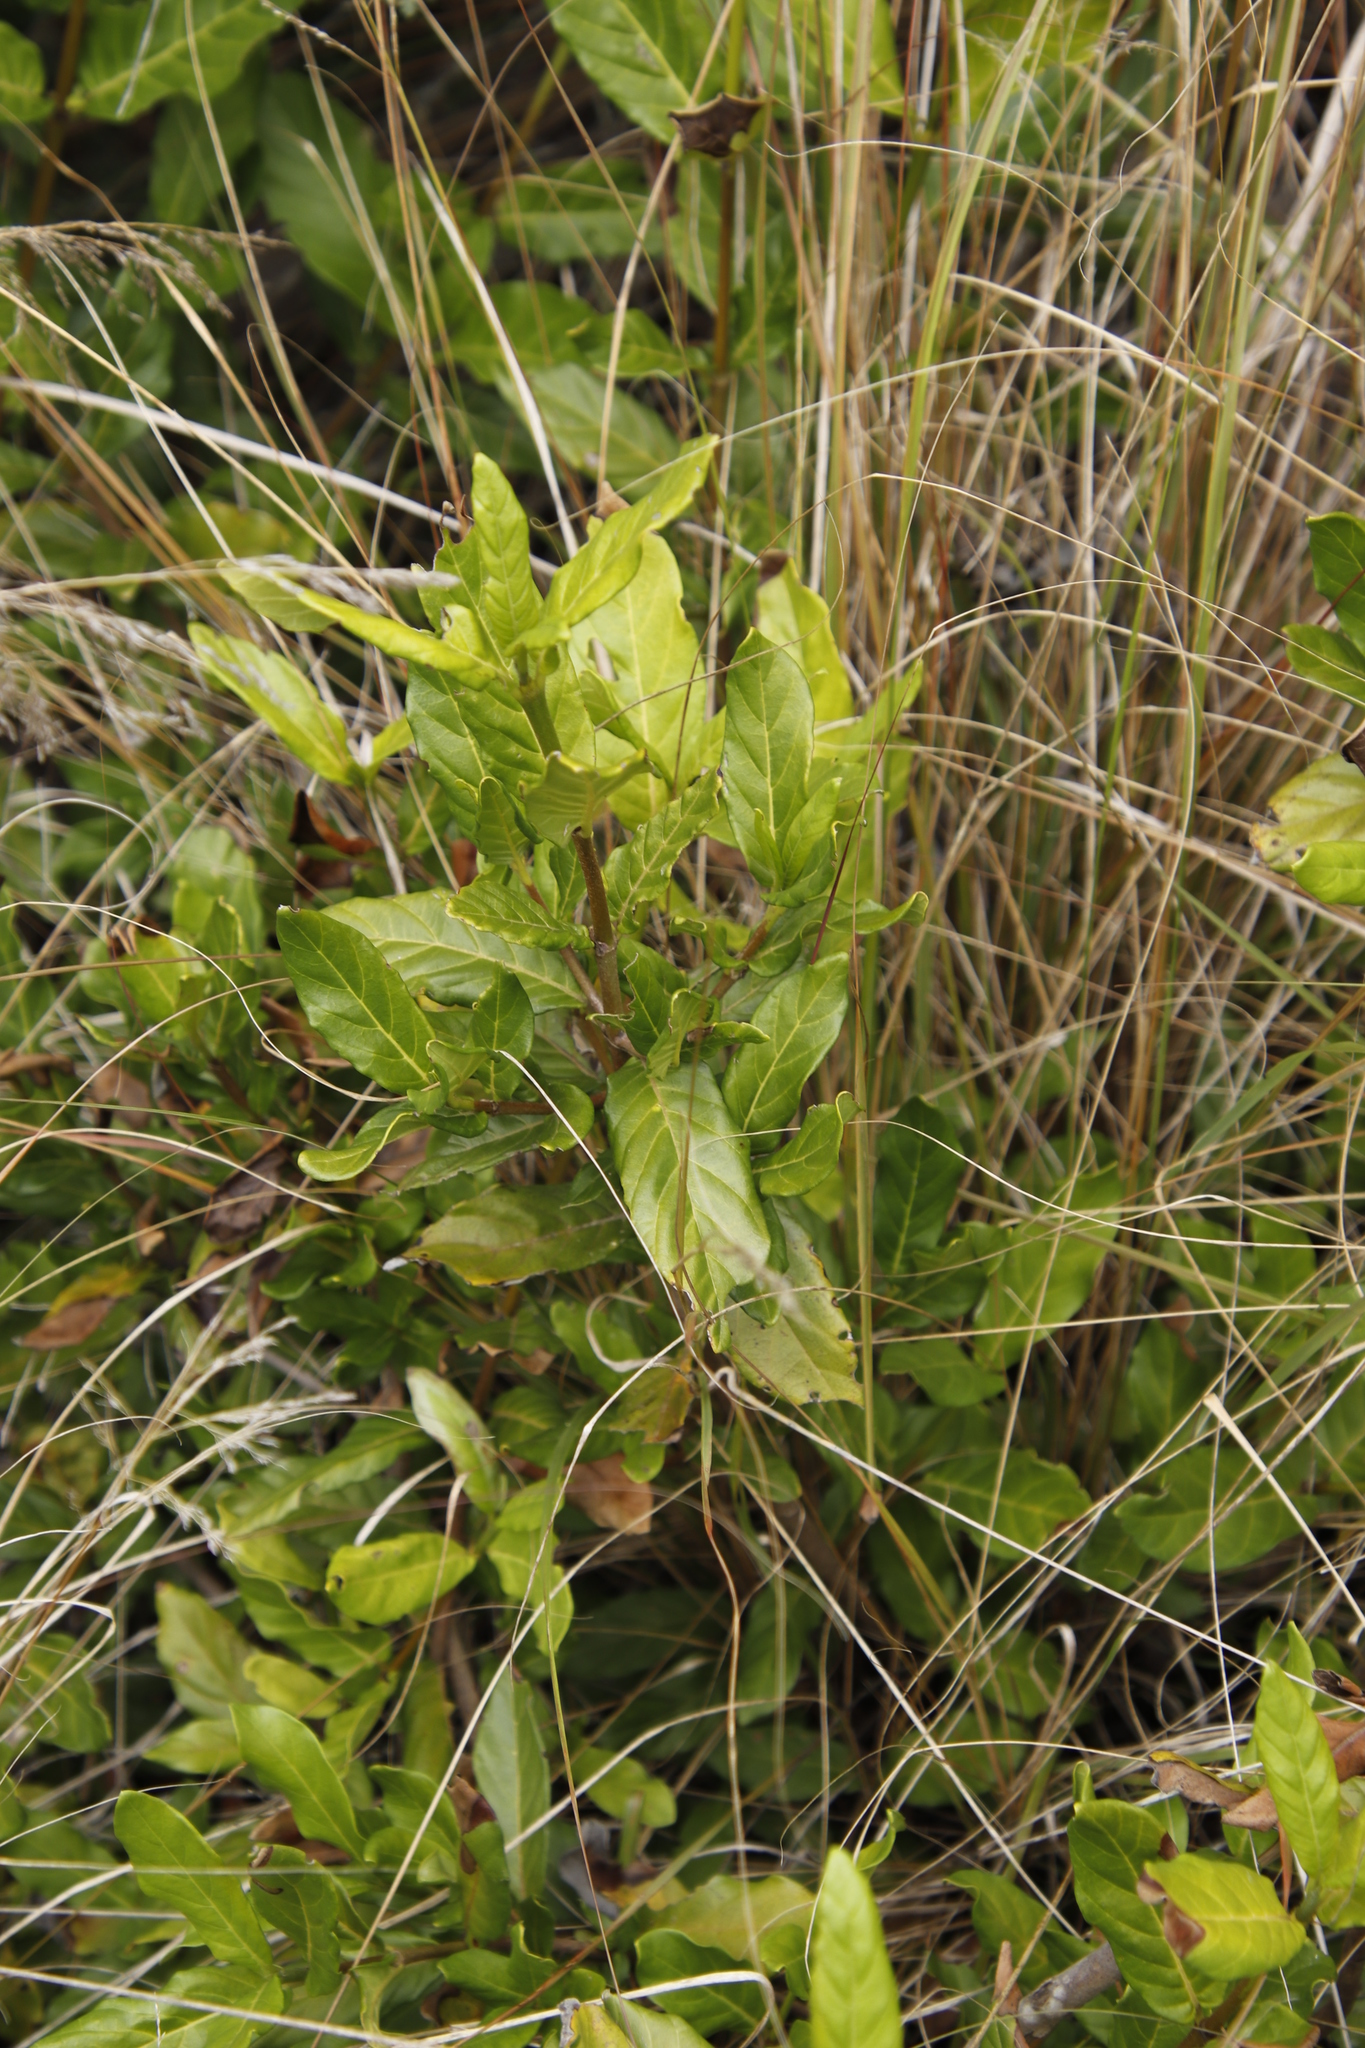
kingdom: Plantae
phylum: Tracheophyta
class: Magnoliopsida
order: Gentianales
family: Rubiaceae
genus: Burchellia
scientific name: Burchellia bubalina
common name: Wild pomegranate
